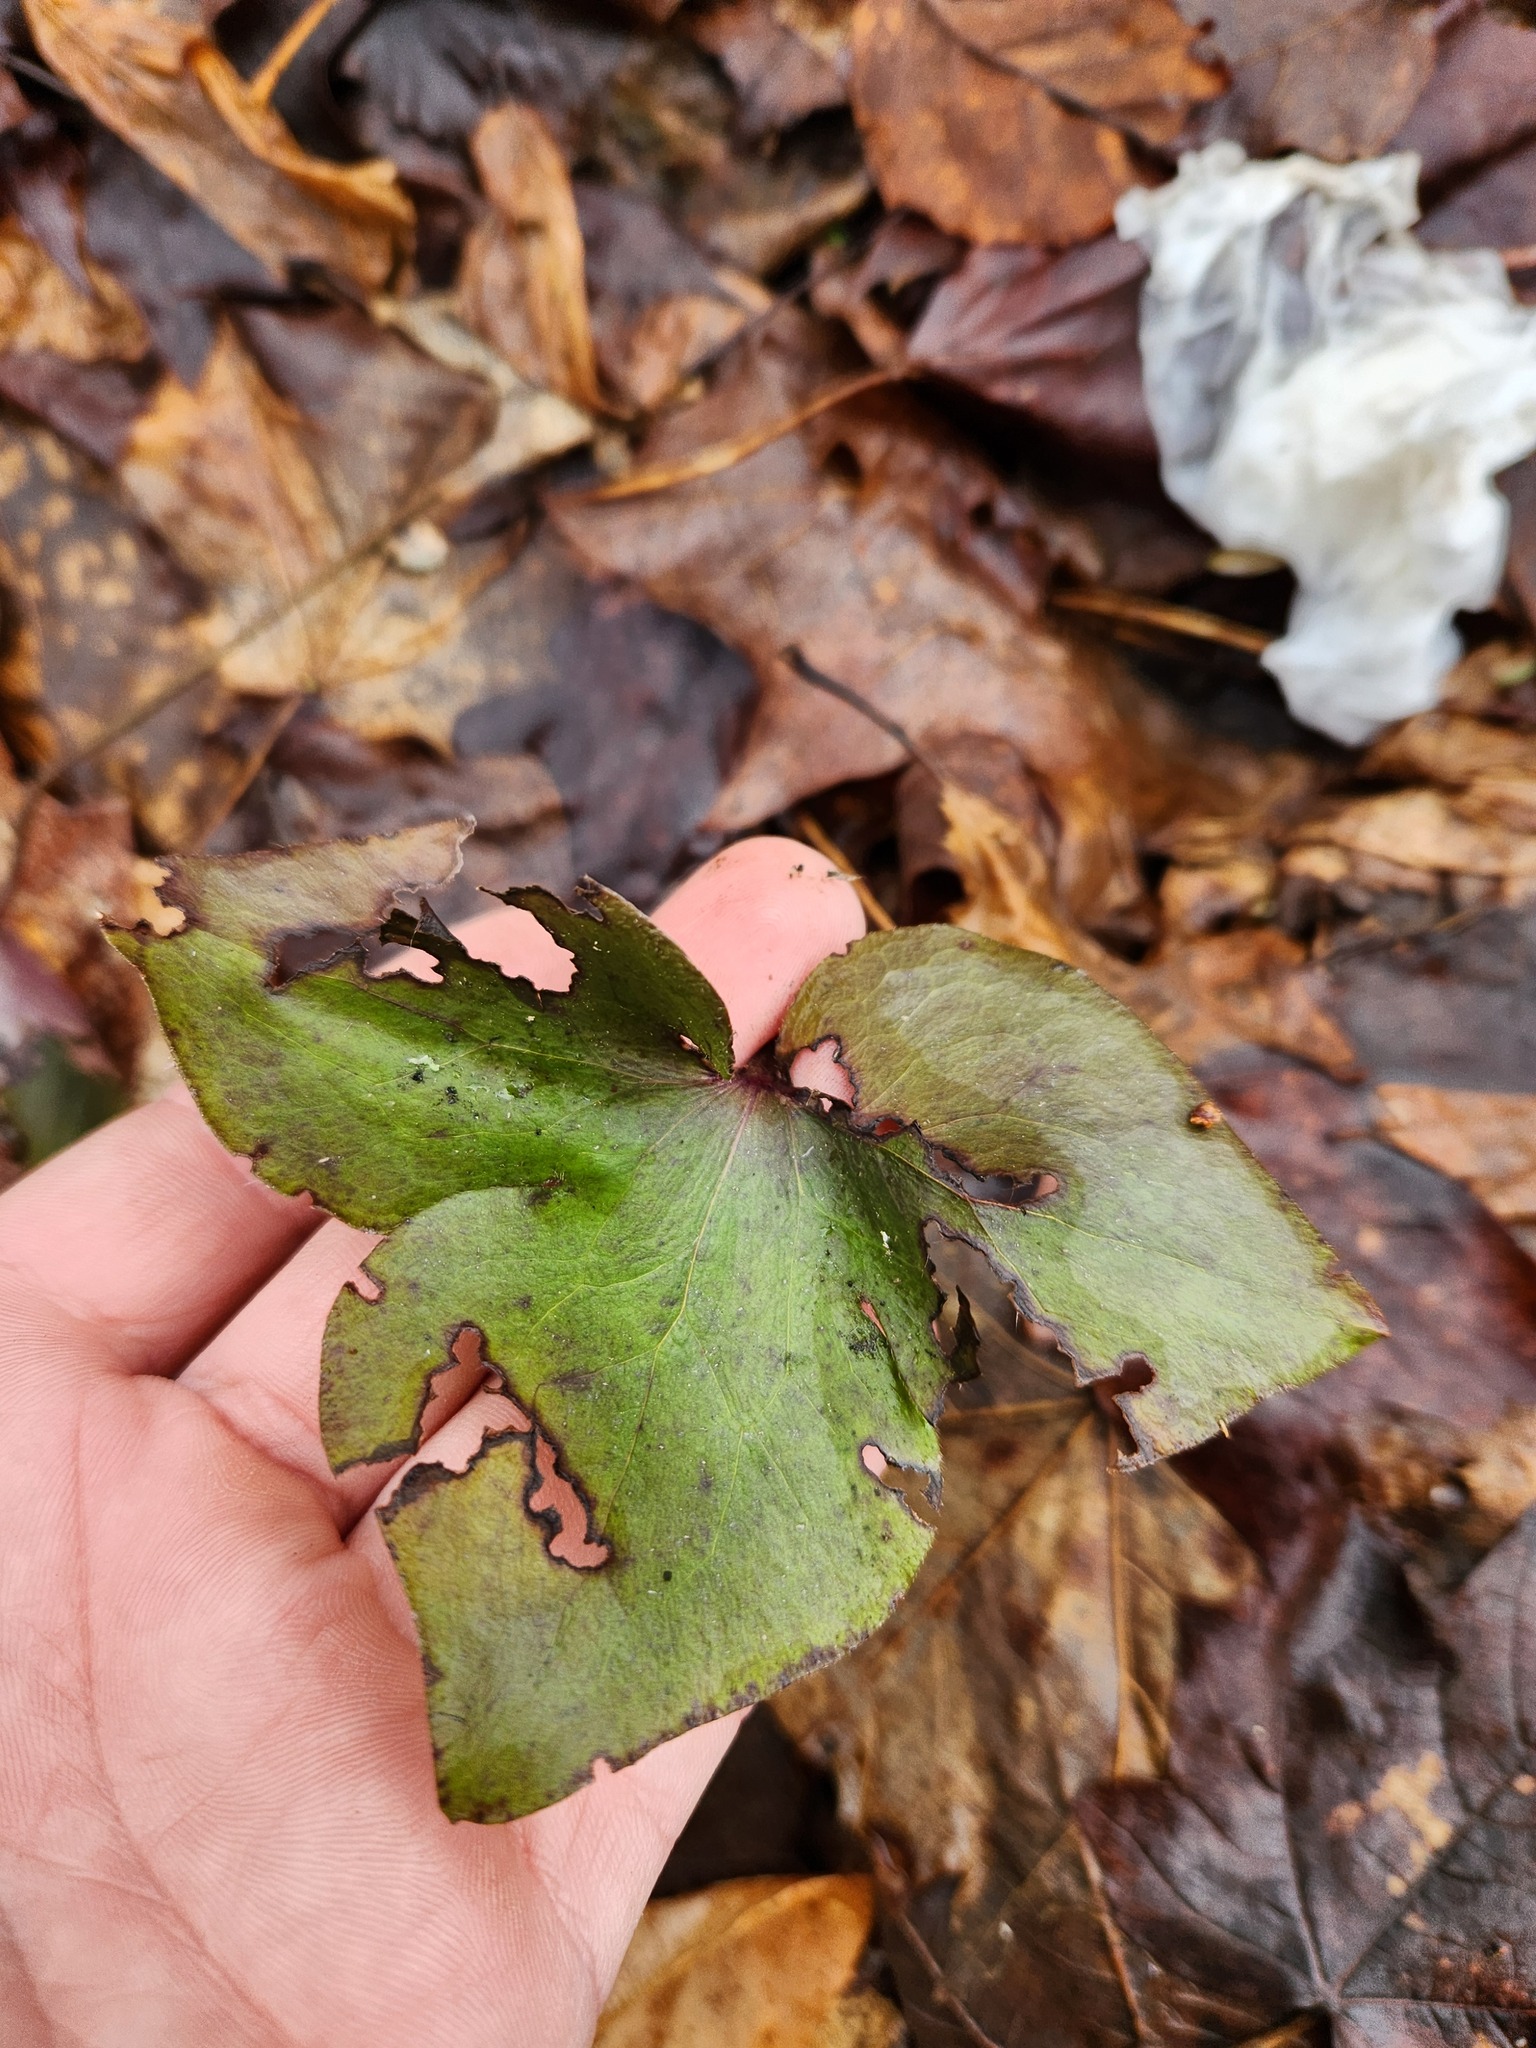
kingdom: Plantae
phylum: Tracheophyta
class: Magnoliopsida
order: Ranunculales
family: Ranunculaceae
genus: Hepatica
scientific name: Hepatica acutiloba
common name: Sharp-lobed hepatica
